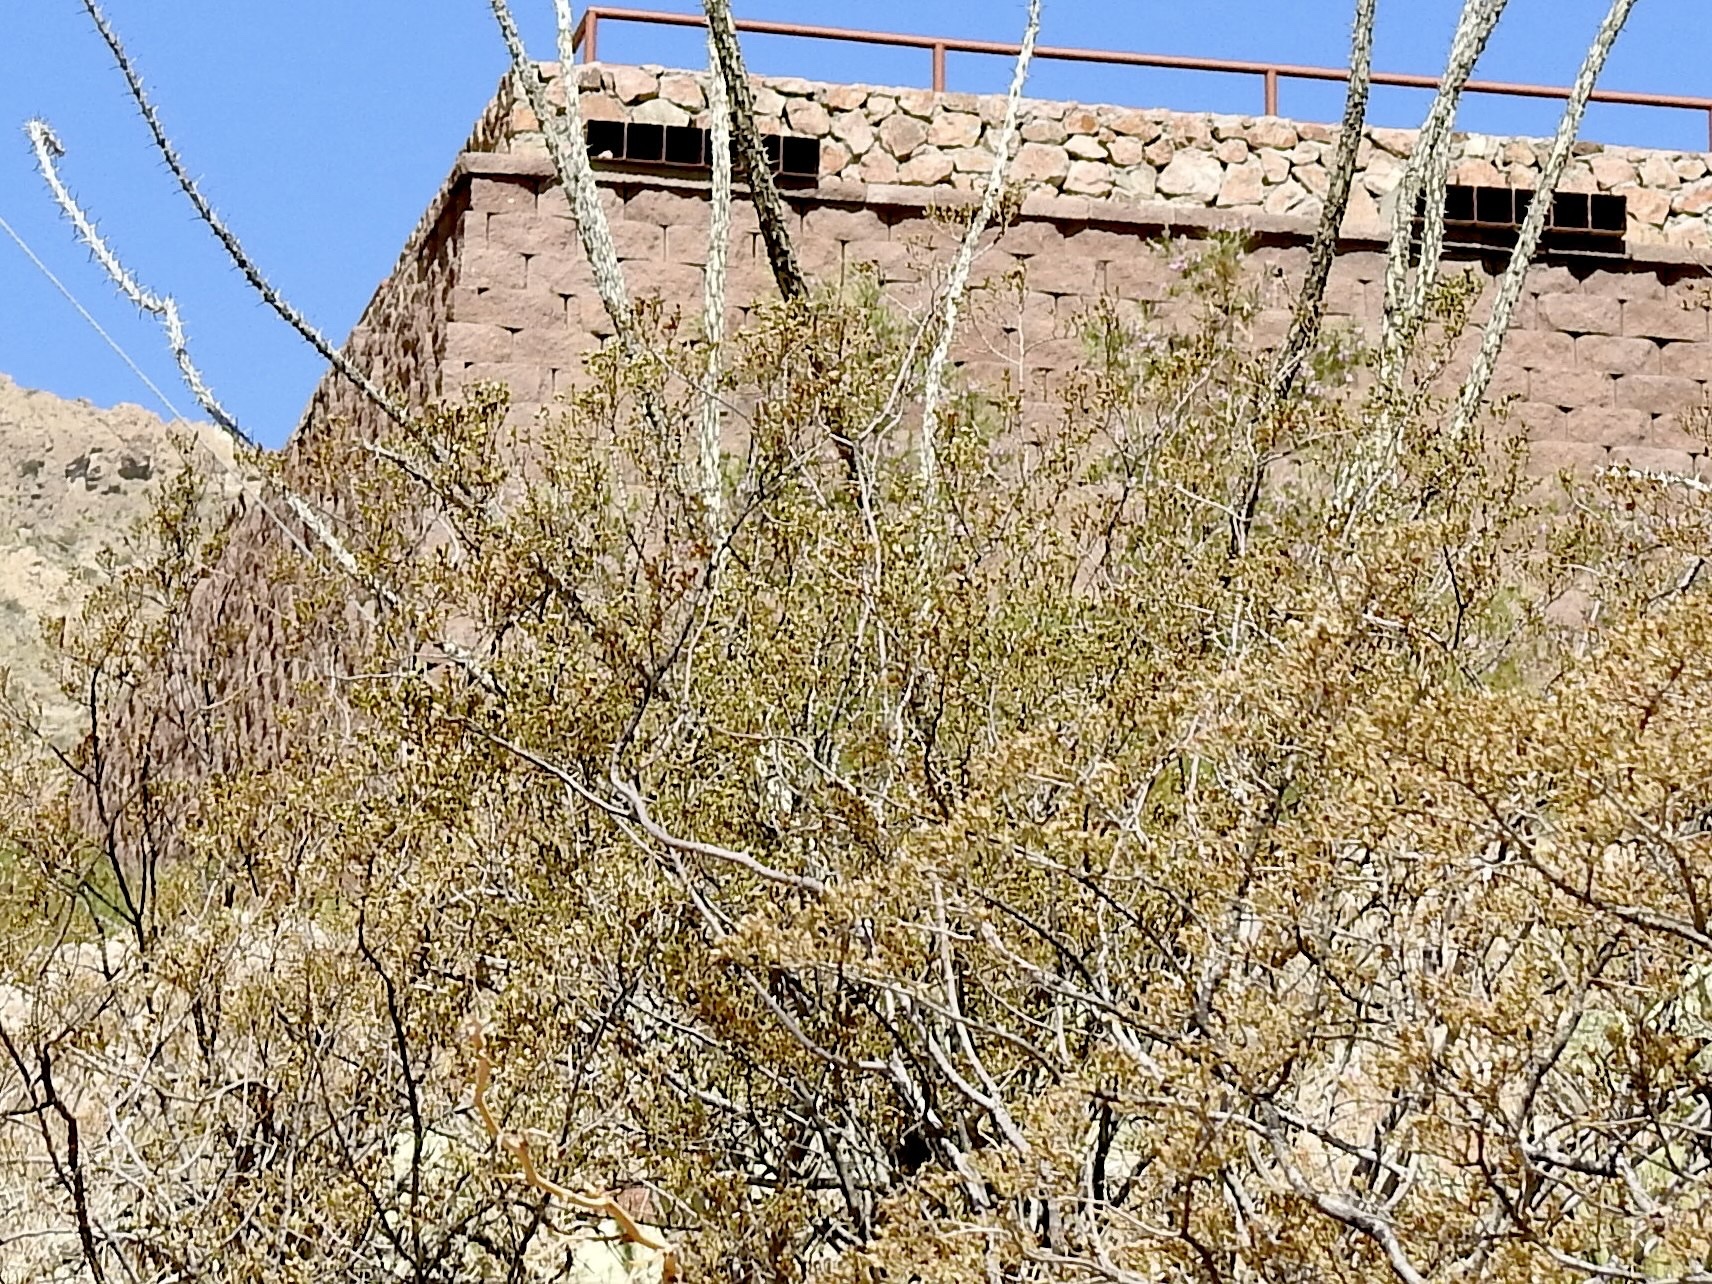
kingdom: Plantae
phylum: Tracheophyta
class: Magnoliopsida
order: Zygophyllales
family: Zygophyllaceae
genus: Larrea
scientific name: Larrea tridentata
